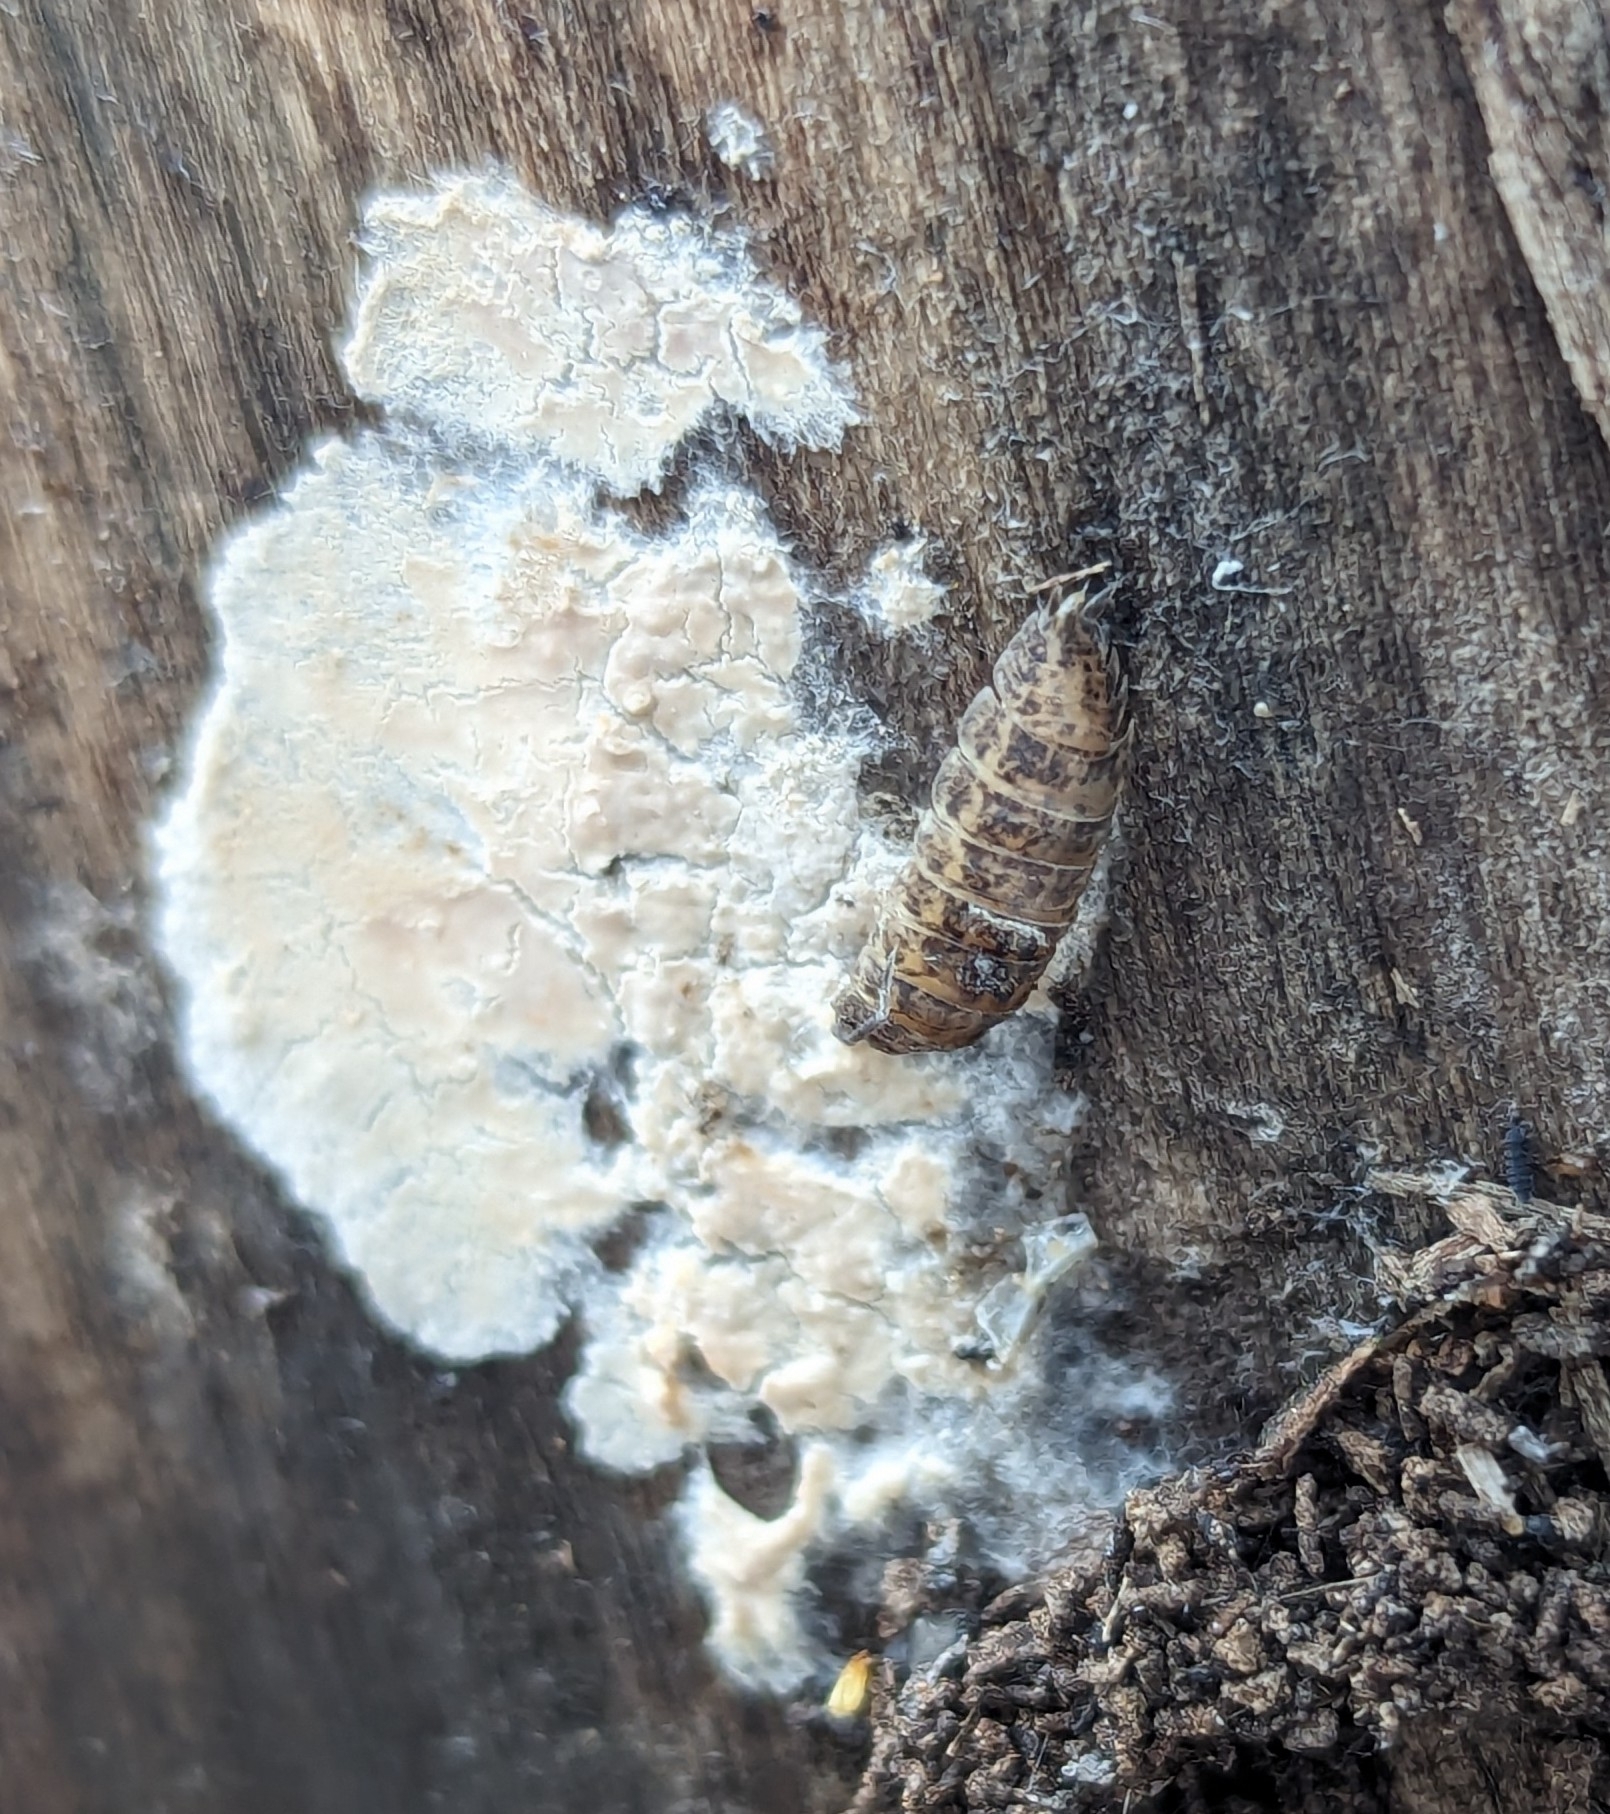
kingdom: Animalia
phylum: Arthropoda
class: Malacostraca
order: Isopoda
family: Trachelipodidae
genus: Trachelipus
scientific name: Trachelipus rathkii
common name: Isopod
